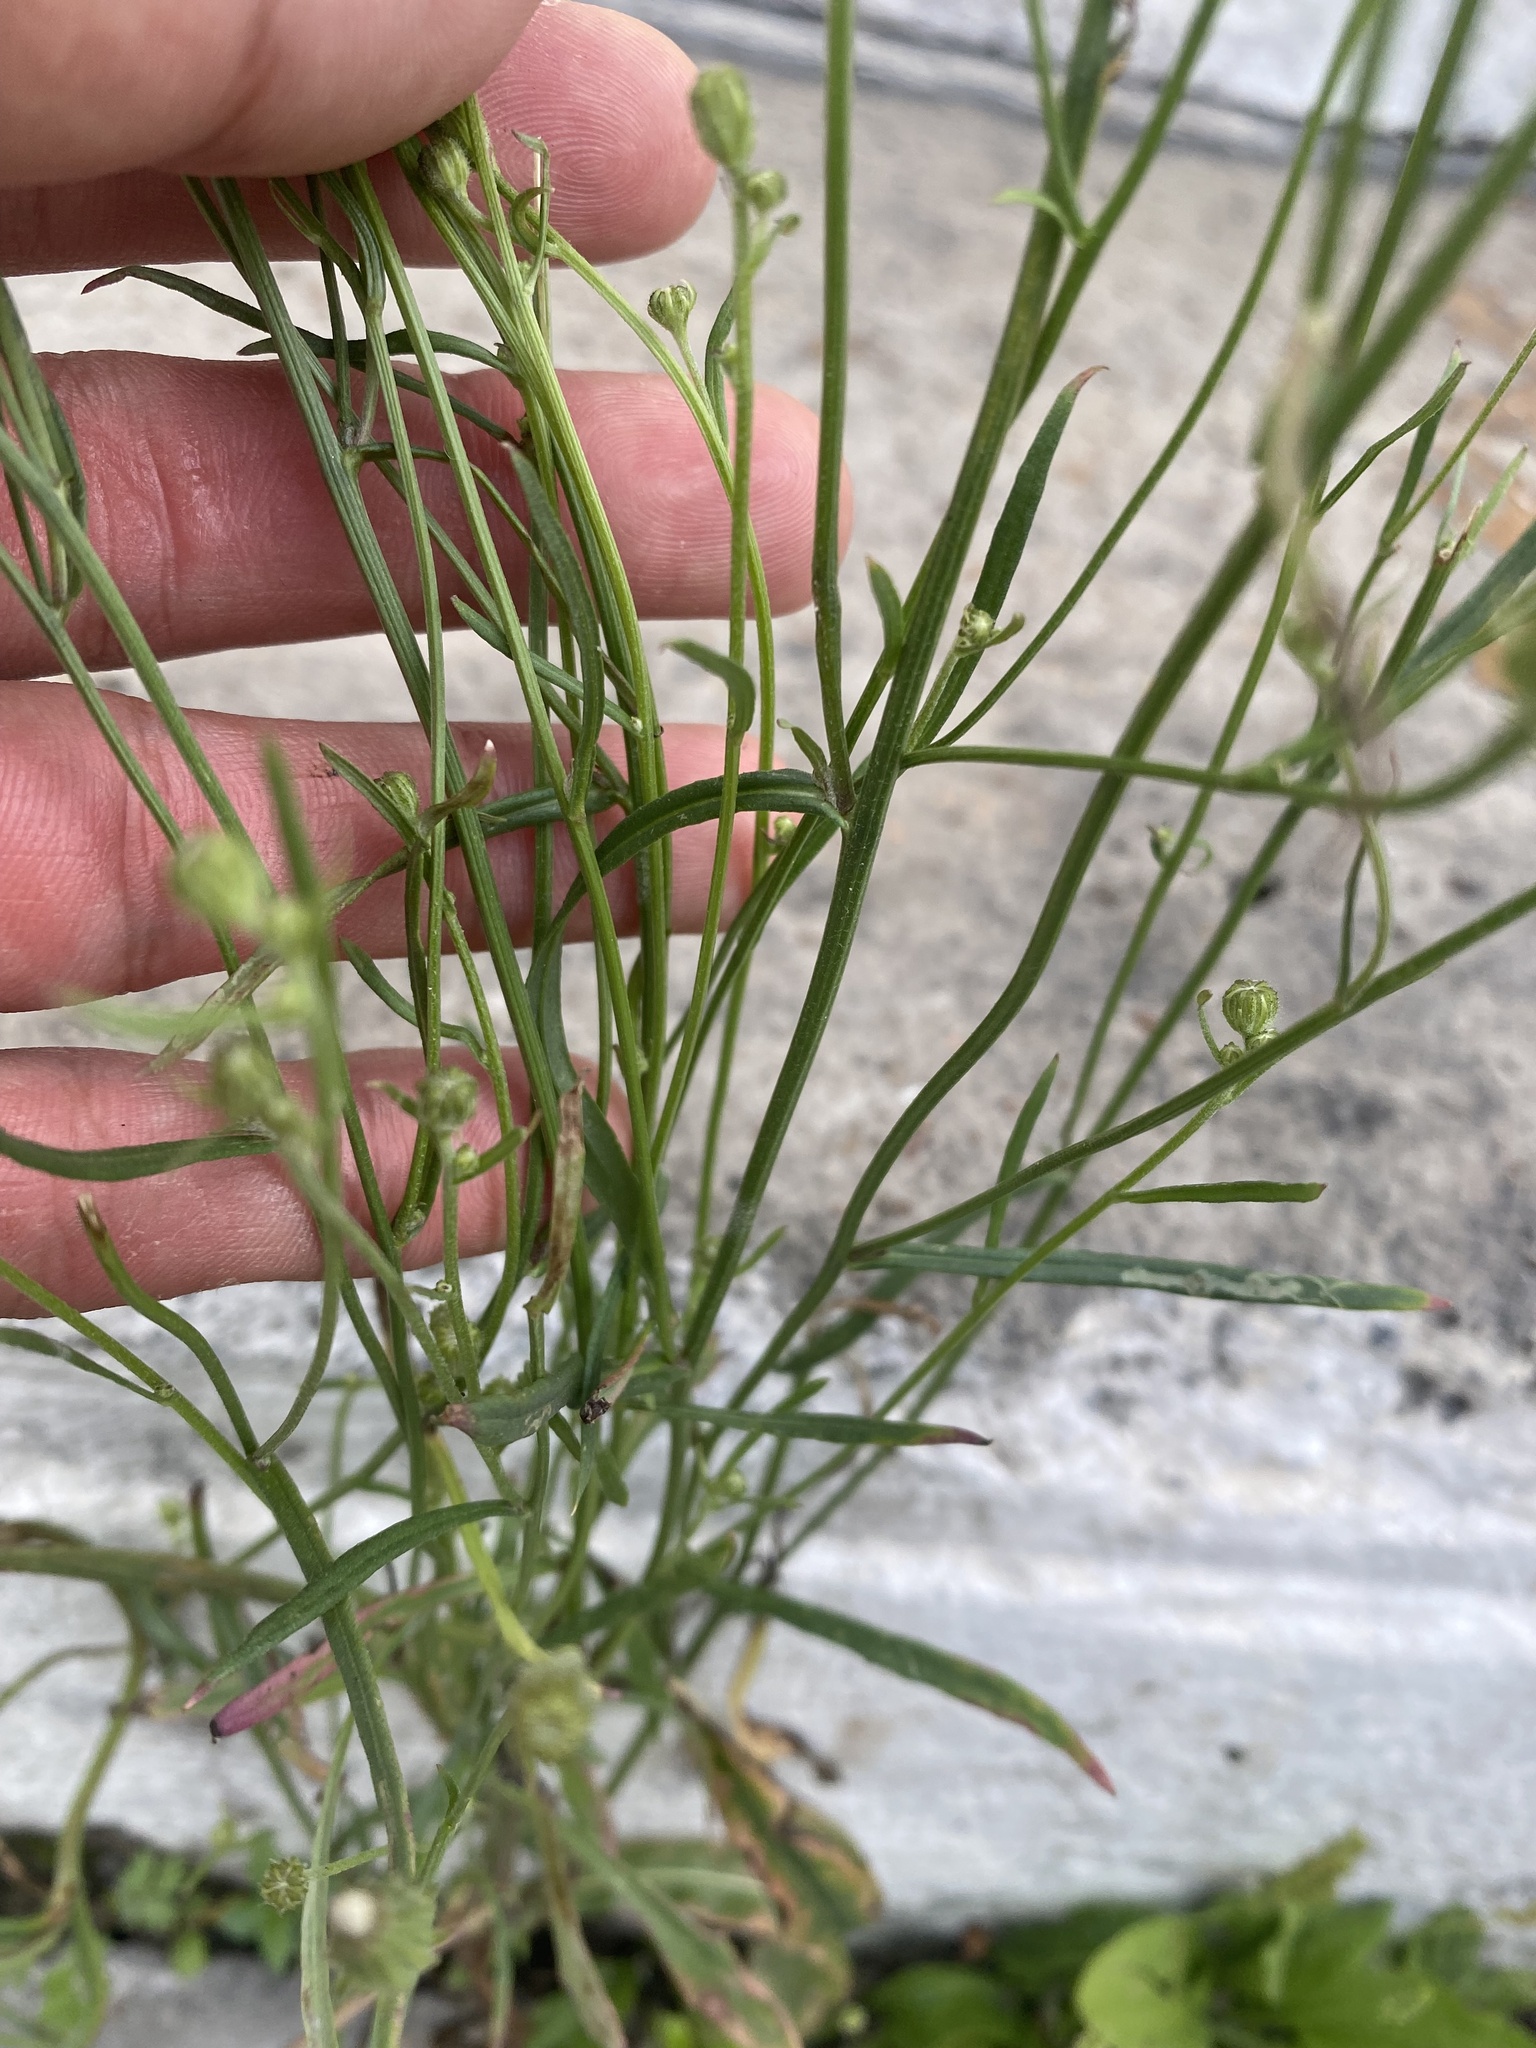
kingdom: Plantae
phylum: Tracheophyta
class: Magnoliopsida
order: Asterales
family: Asteraceae
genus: Crepis
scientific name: Crepis tectorum
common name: Narrow-leaved hawk's-beard
